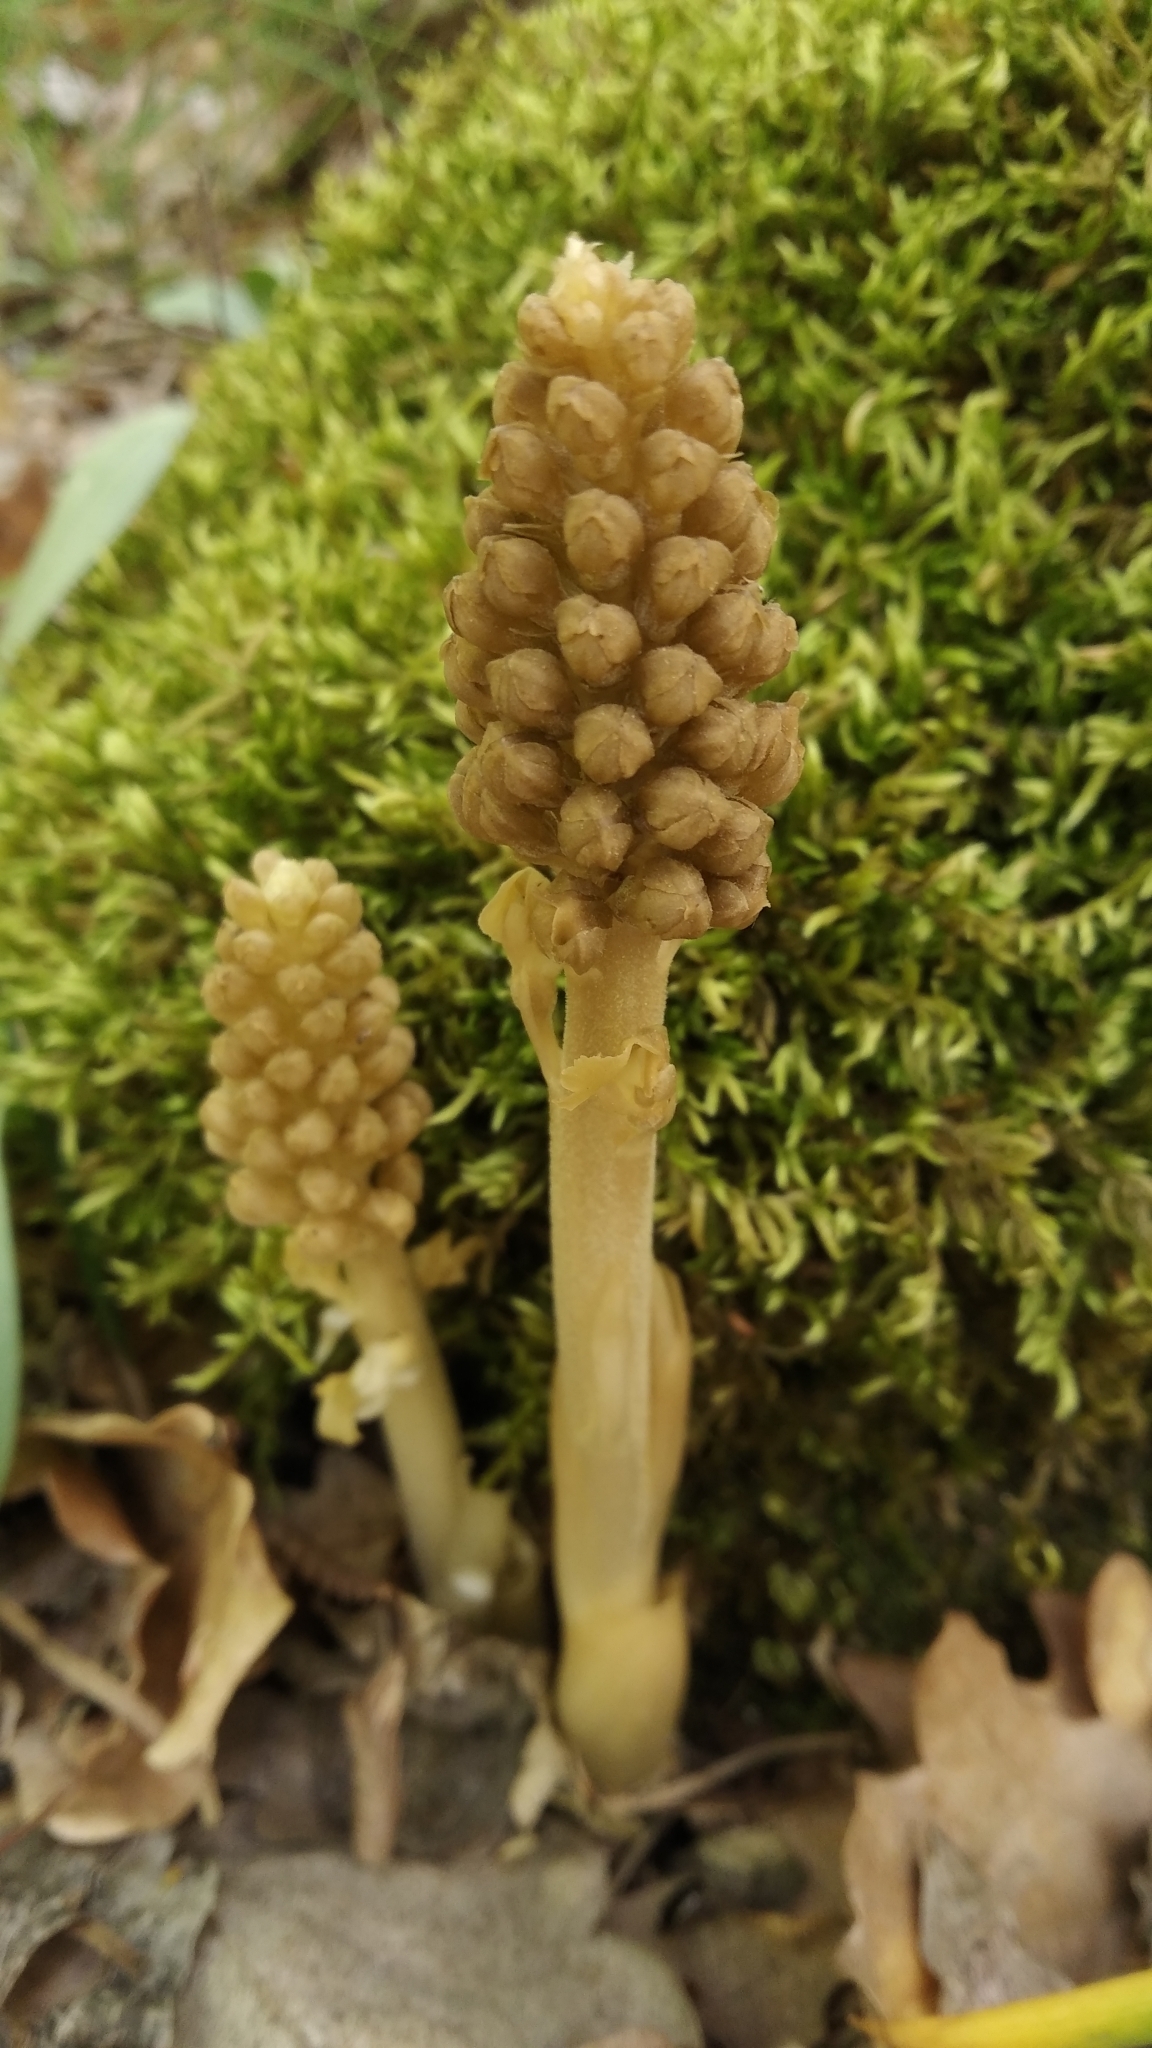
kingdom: Plantae
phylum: Tracheophyta
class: Liliopsida
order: Asparagales
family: Orchidaceae
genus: Neottia
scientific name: Neottia nidus-avis
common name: Bird's-nest orchid
